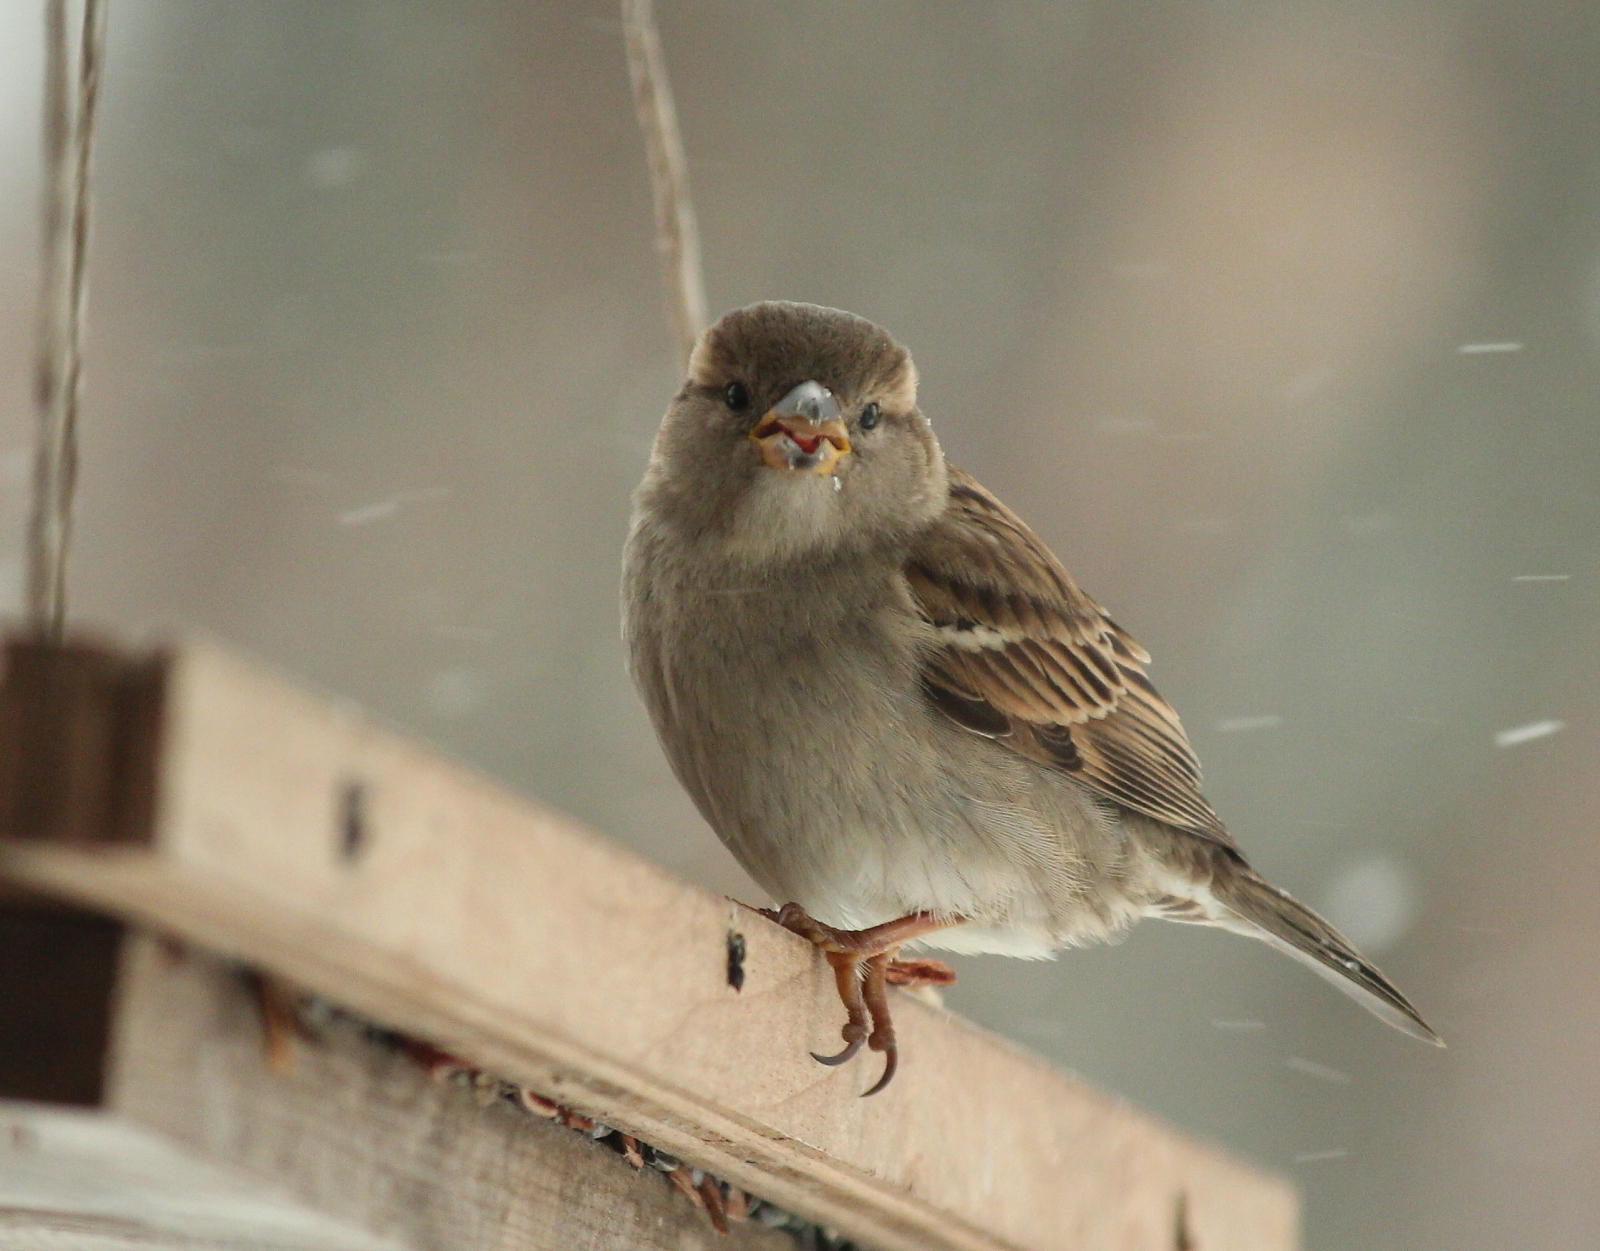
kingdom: Animalia
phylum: Chordata
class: Aves
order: Passeriformes
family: Passeridae
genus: Passer
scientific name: Passer domesticus
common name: House sparrow
